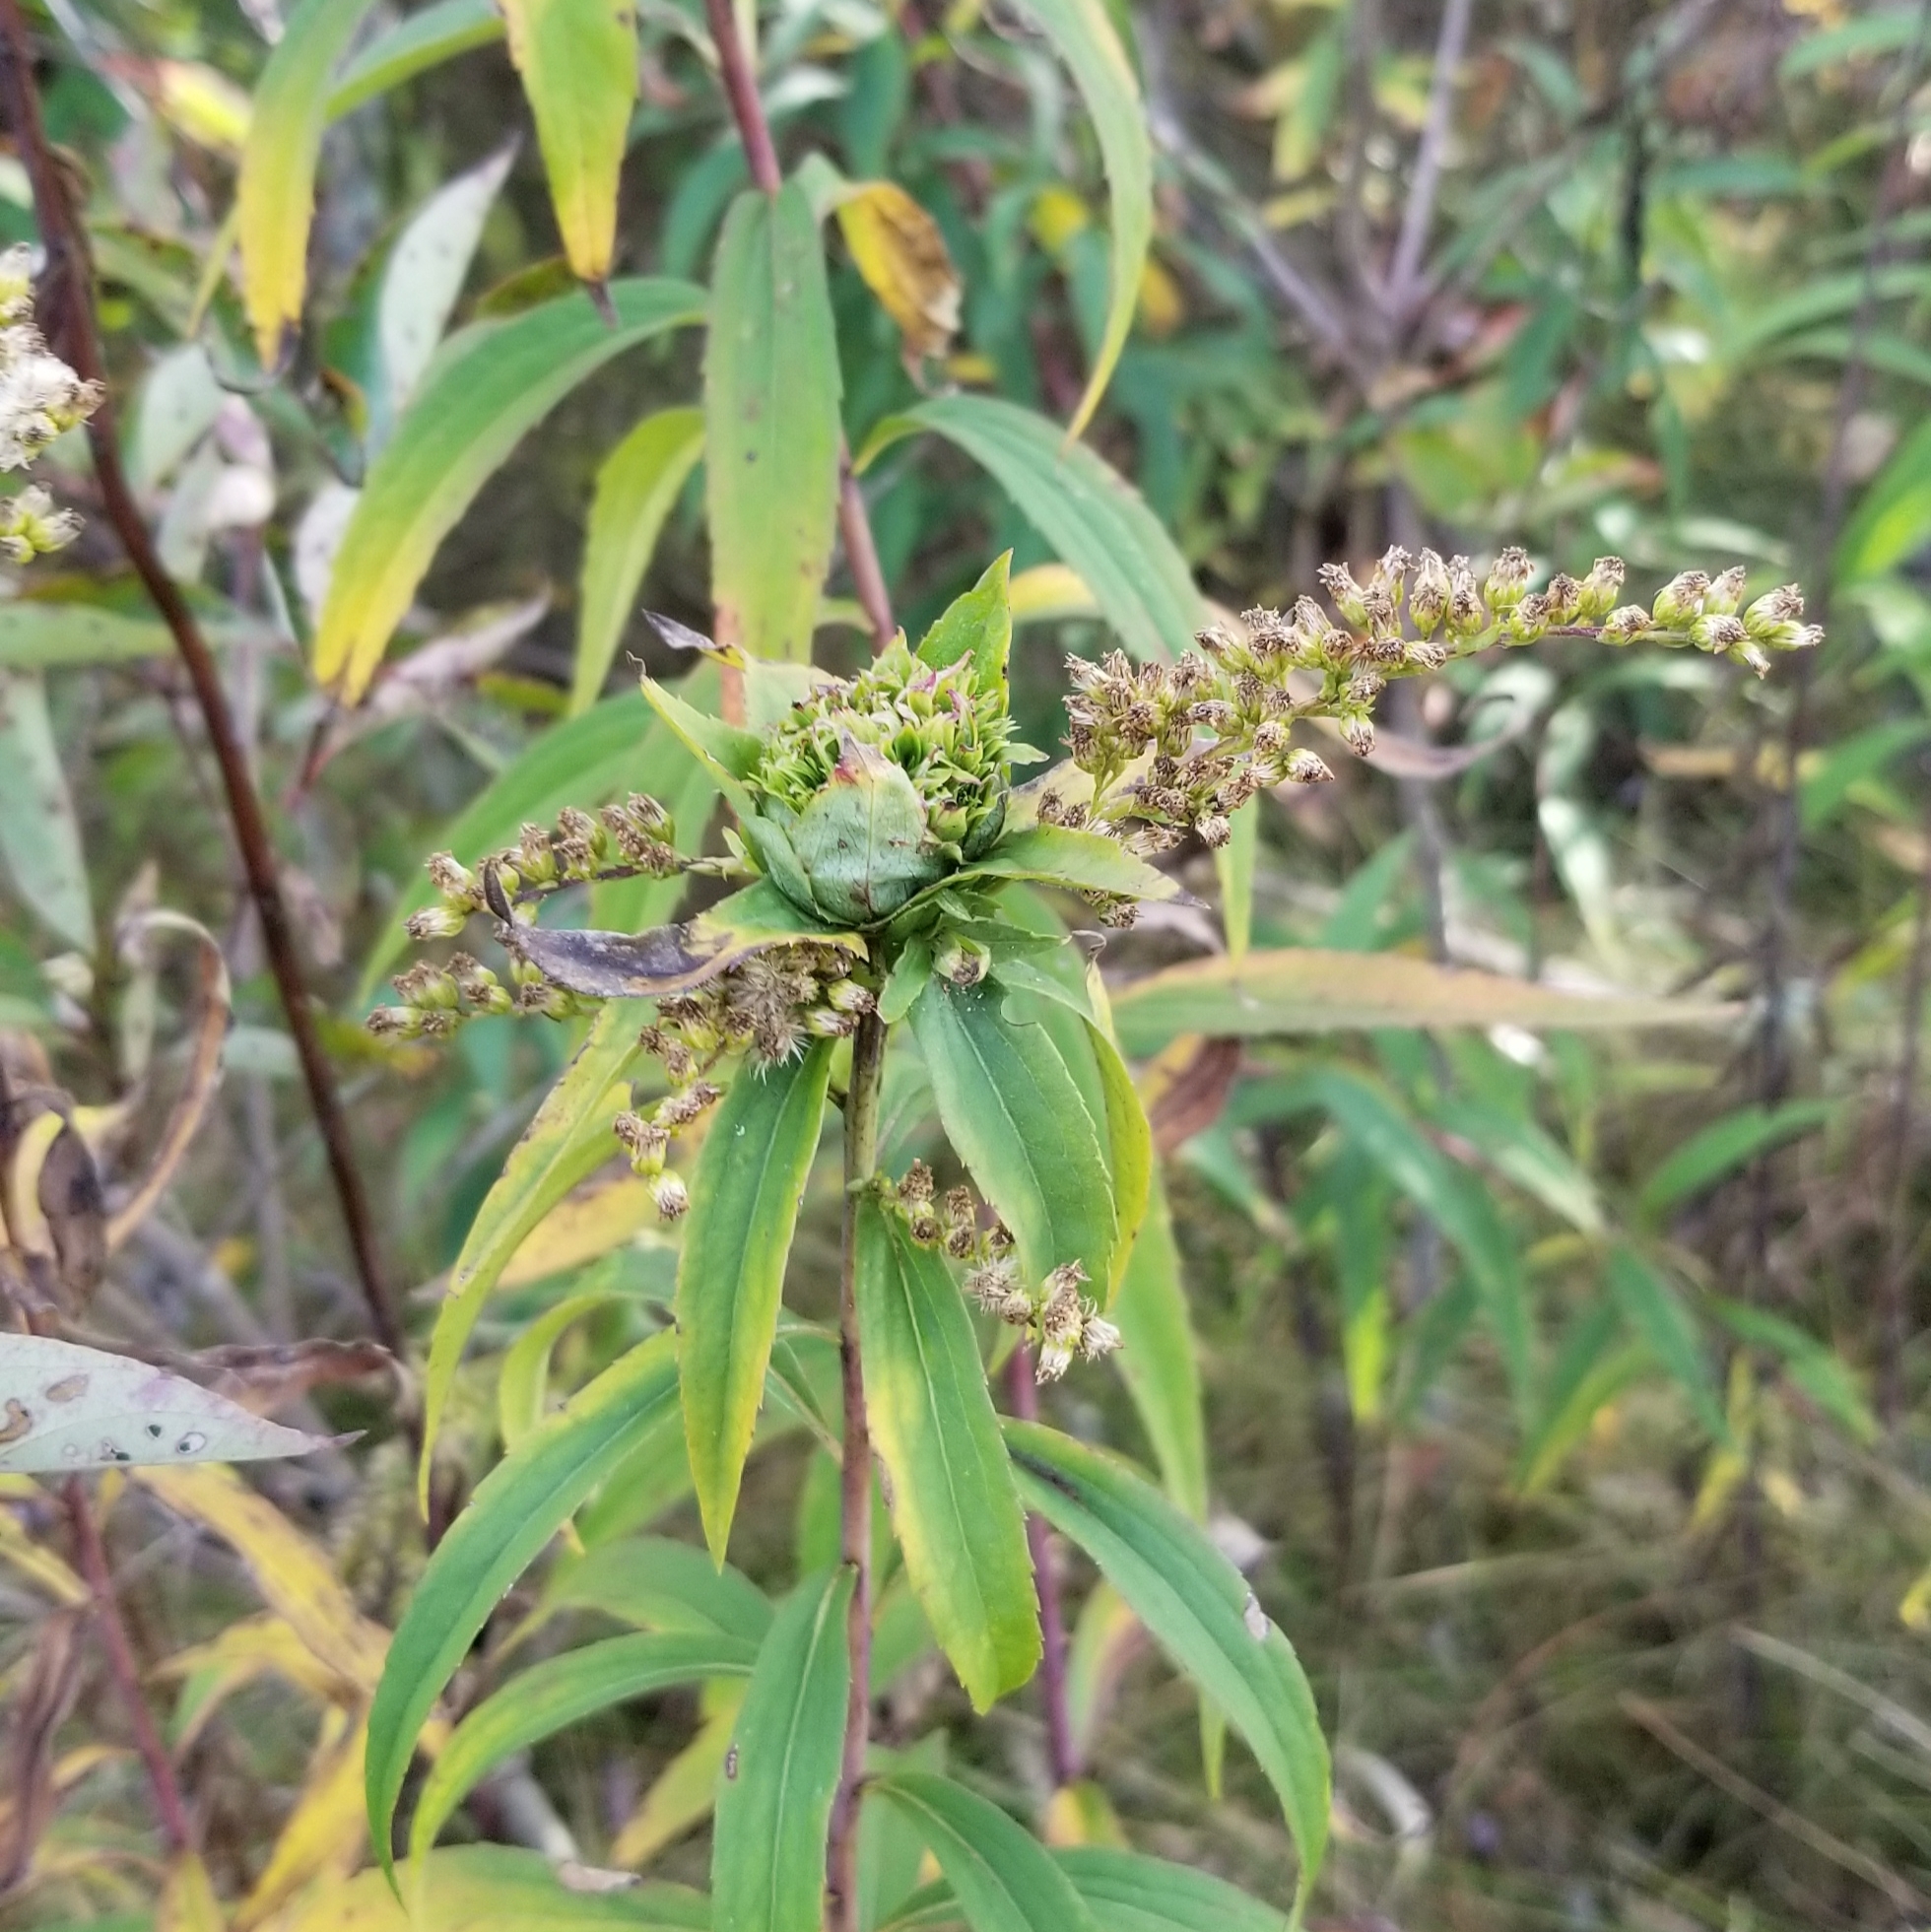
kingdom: Animalia
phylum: Arthropoda
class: Insecta
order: Diptera
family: Cecidomyiidae
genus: Rhopalomyia
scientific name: Rhopalomyia capitata
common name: Giant goldenrod bunch gall midge
